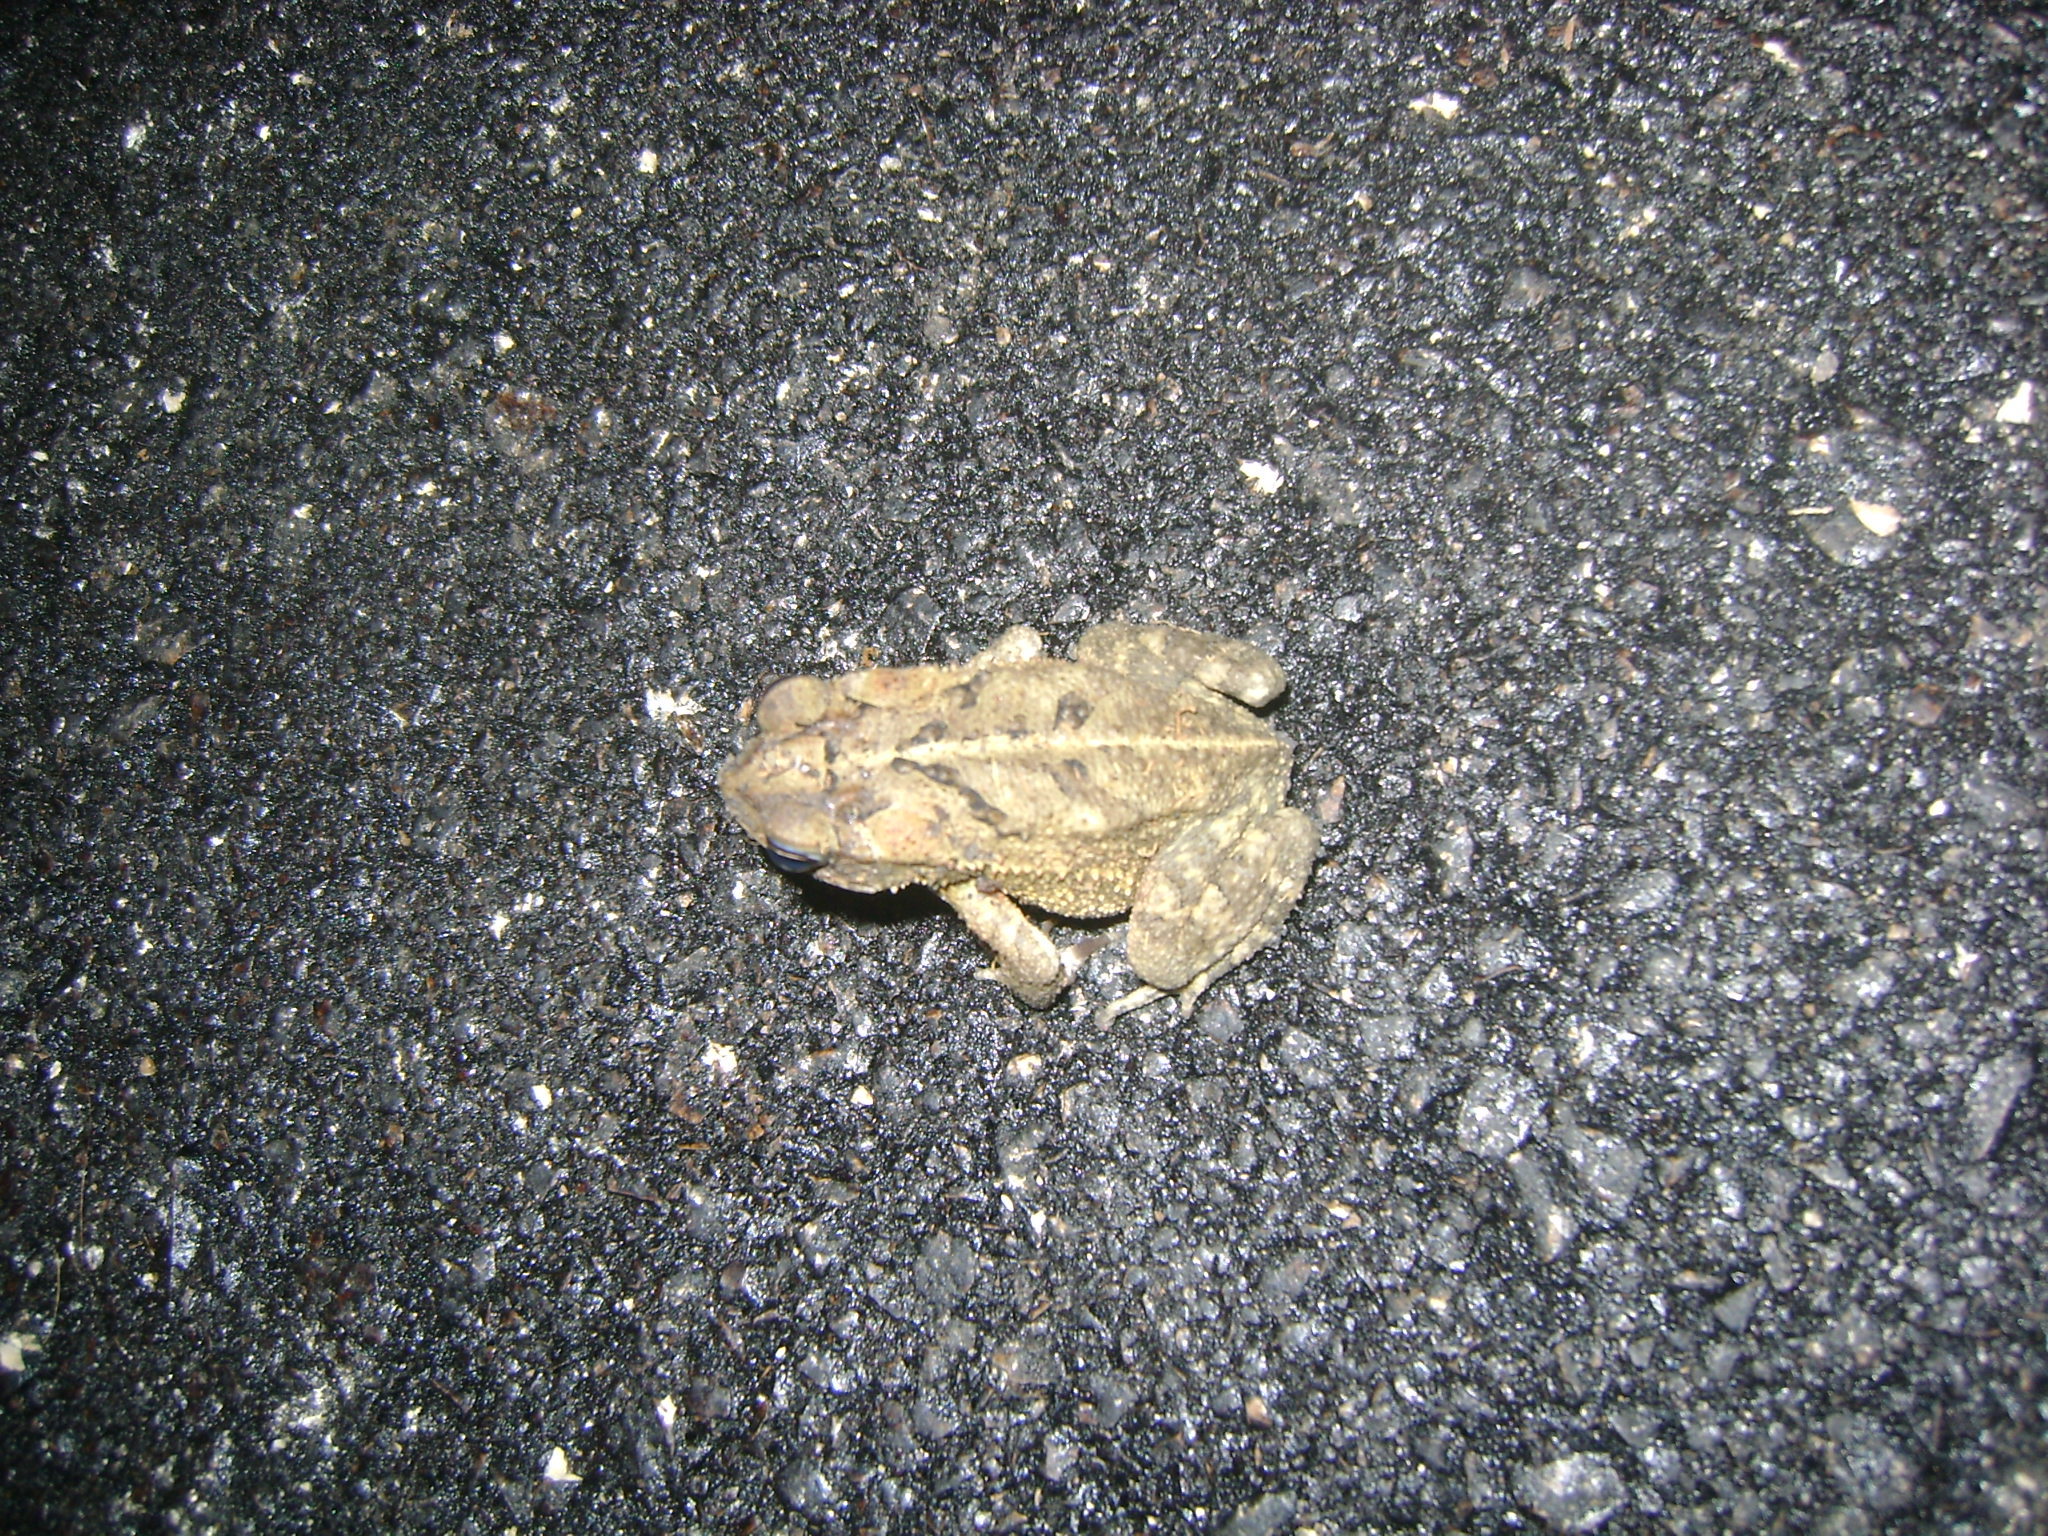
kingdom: Animalia
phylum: Chordata
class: Amphibia
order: Anura
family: Bufonidae
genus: Incilius
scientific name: Incilius valliceps
